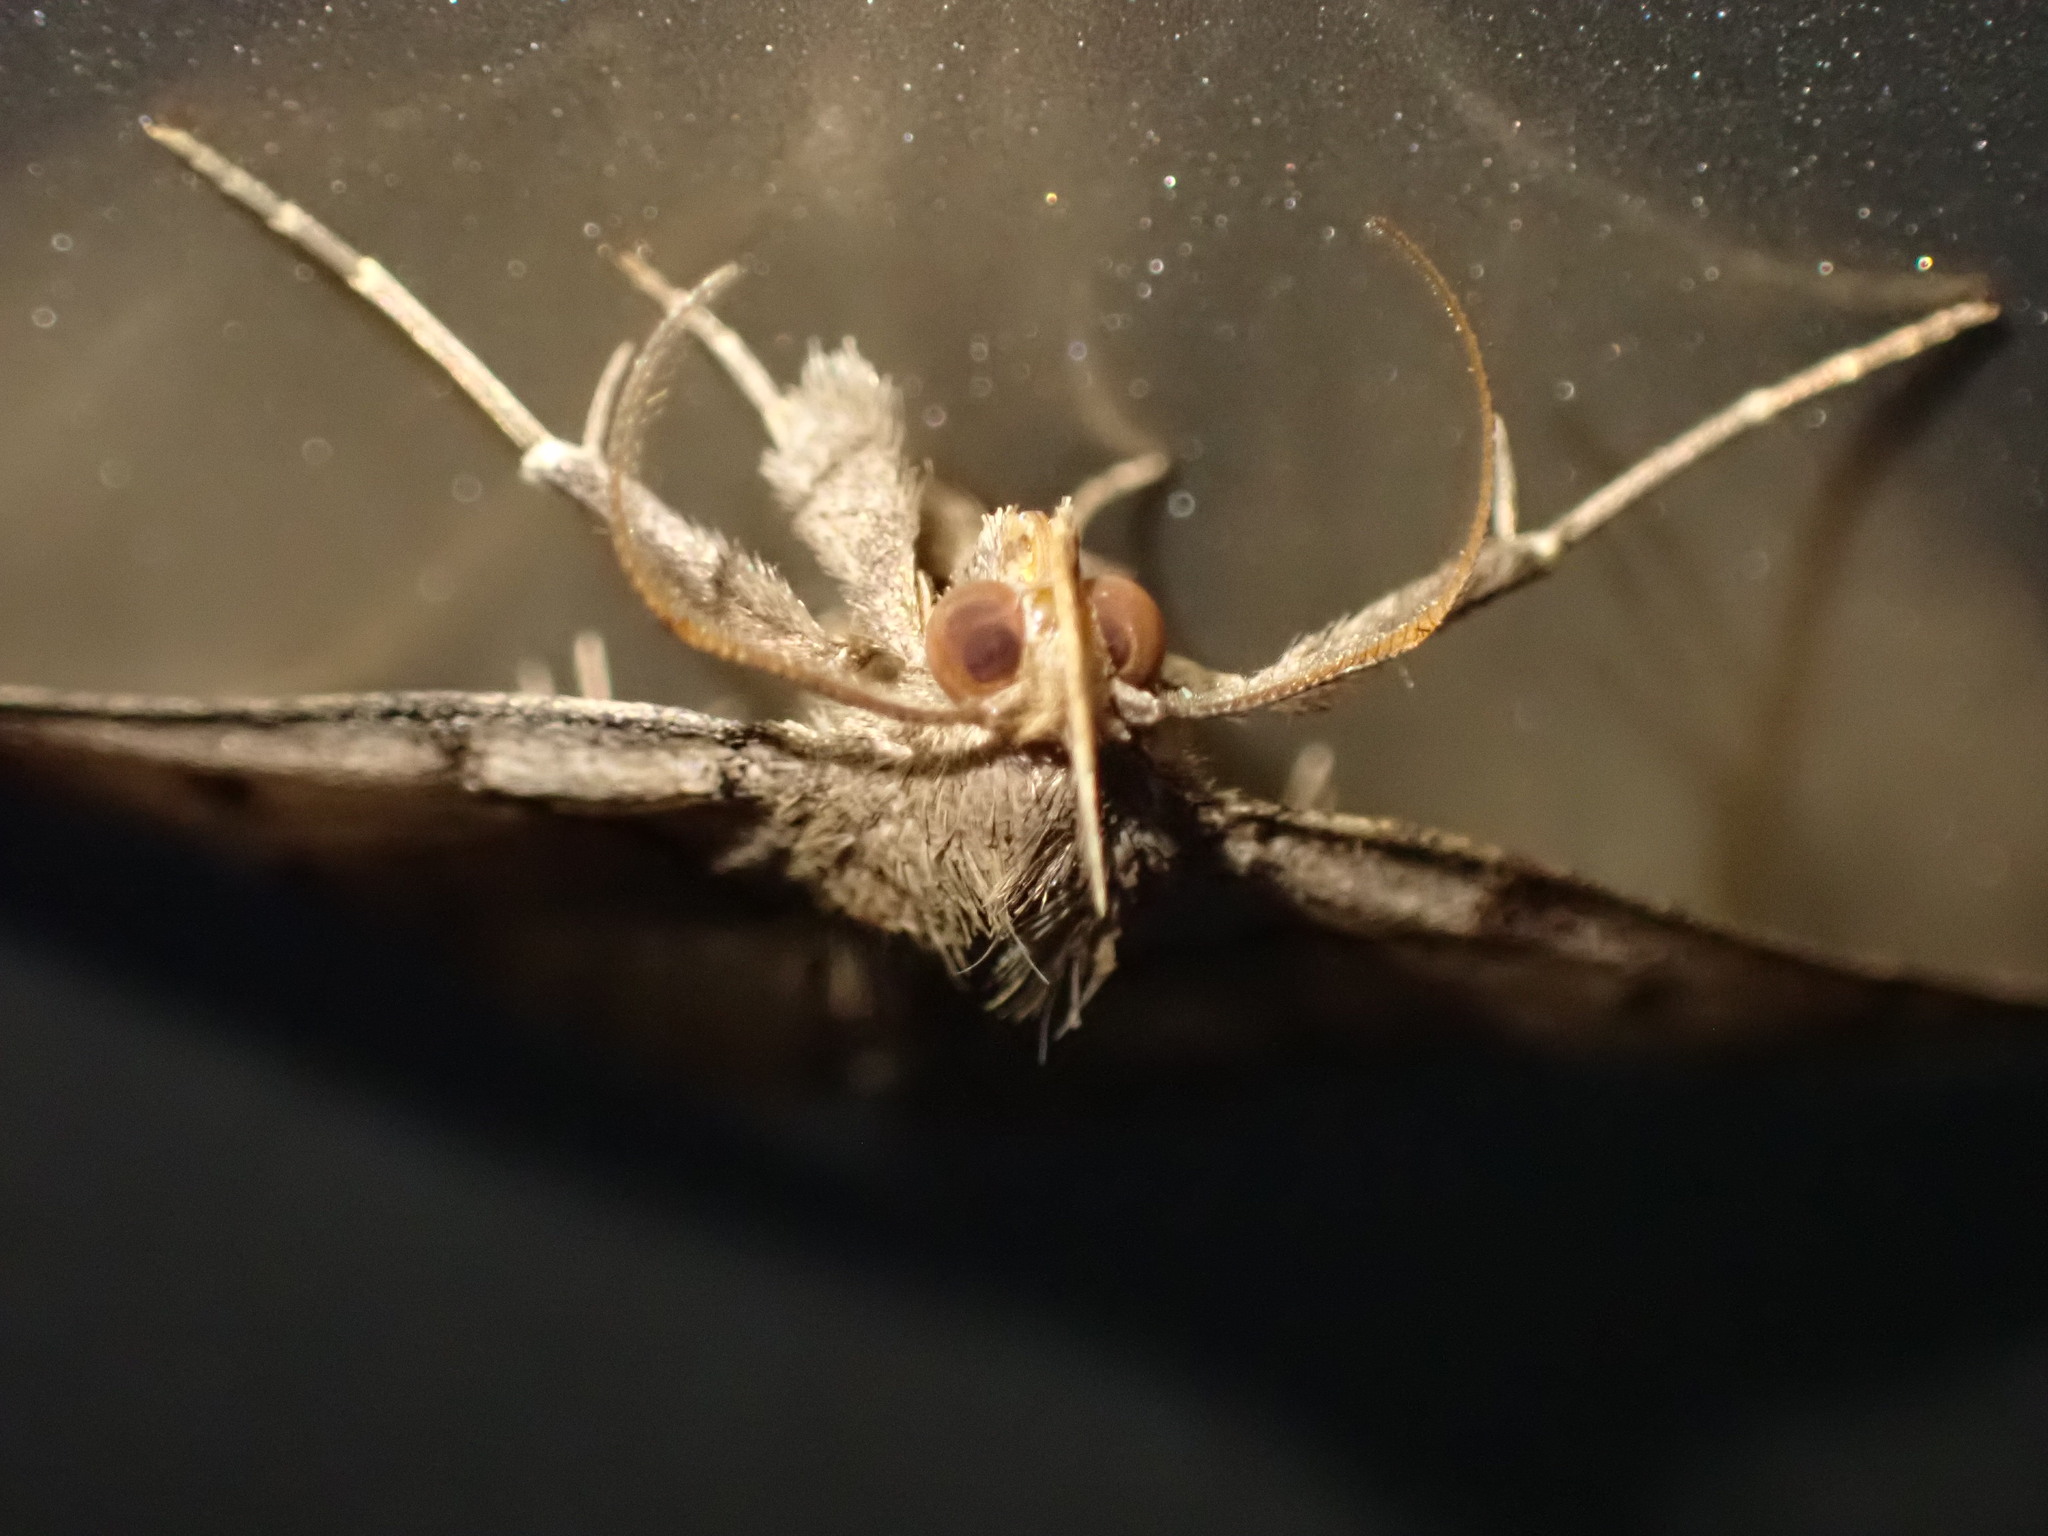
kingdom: Animalia
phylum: Arthropoda
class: Insecta
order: Lepidoptera
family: Erebidae
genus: Zanclognatha
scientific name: Zanclognatha laevigata
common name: Variable fan-foot
